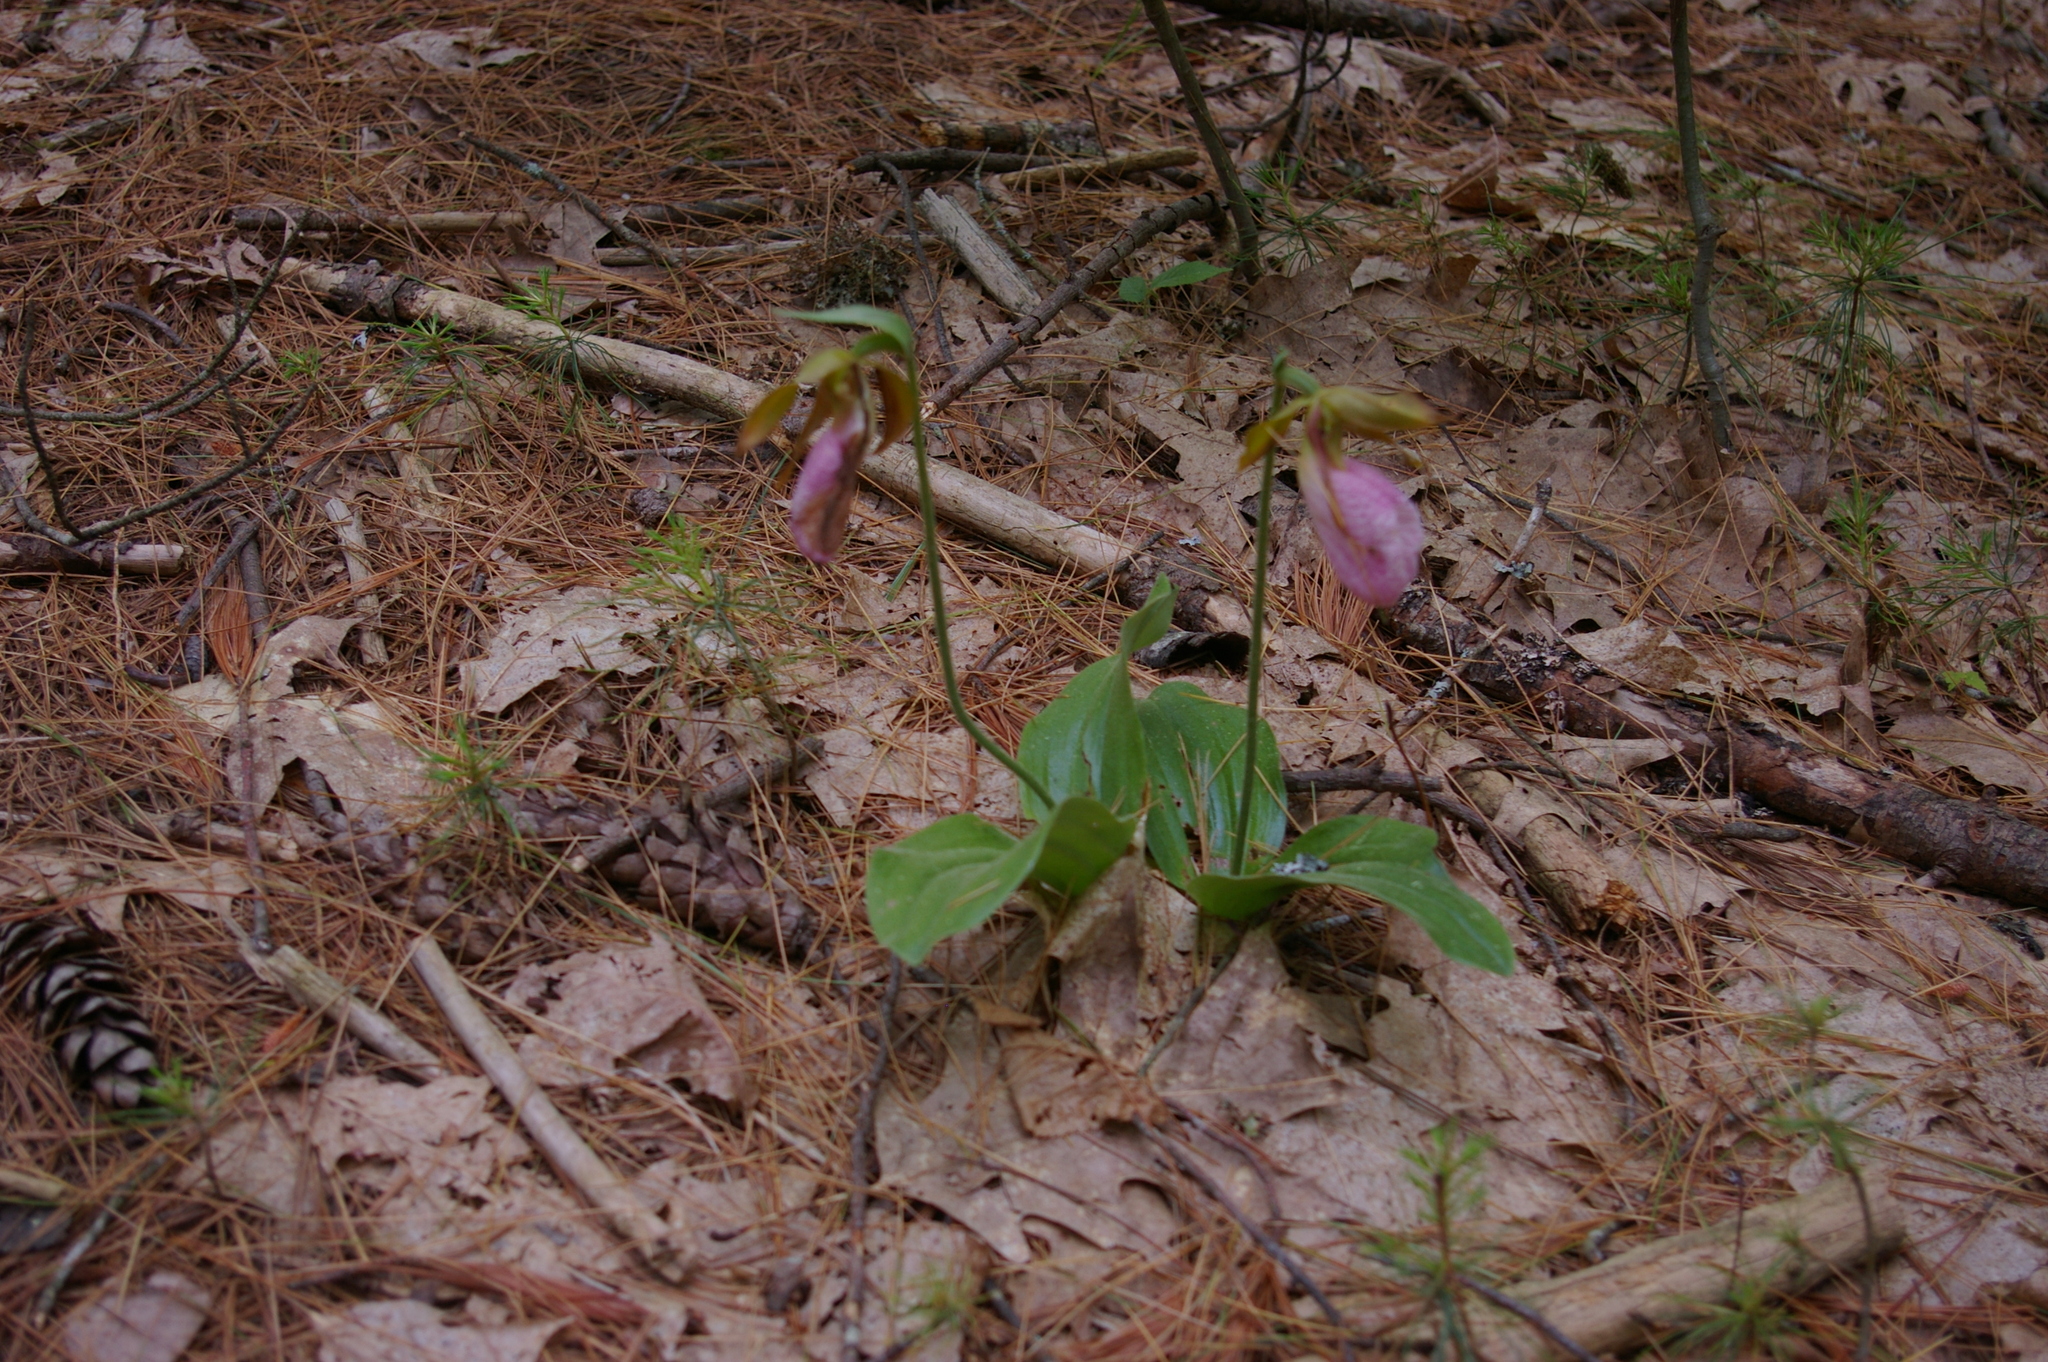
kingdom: Plantae
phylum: Tracheophyta
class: Liliopsida
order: Asparagales
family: Orchidaceae
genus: Cypripedium
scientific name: Cypripedium acaule
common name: Pink lady's-slipper
